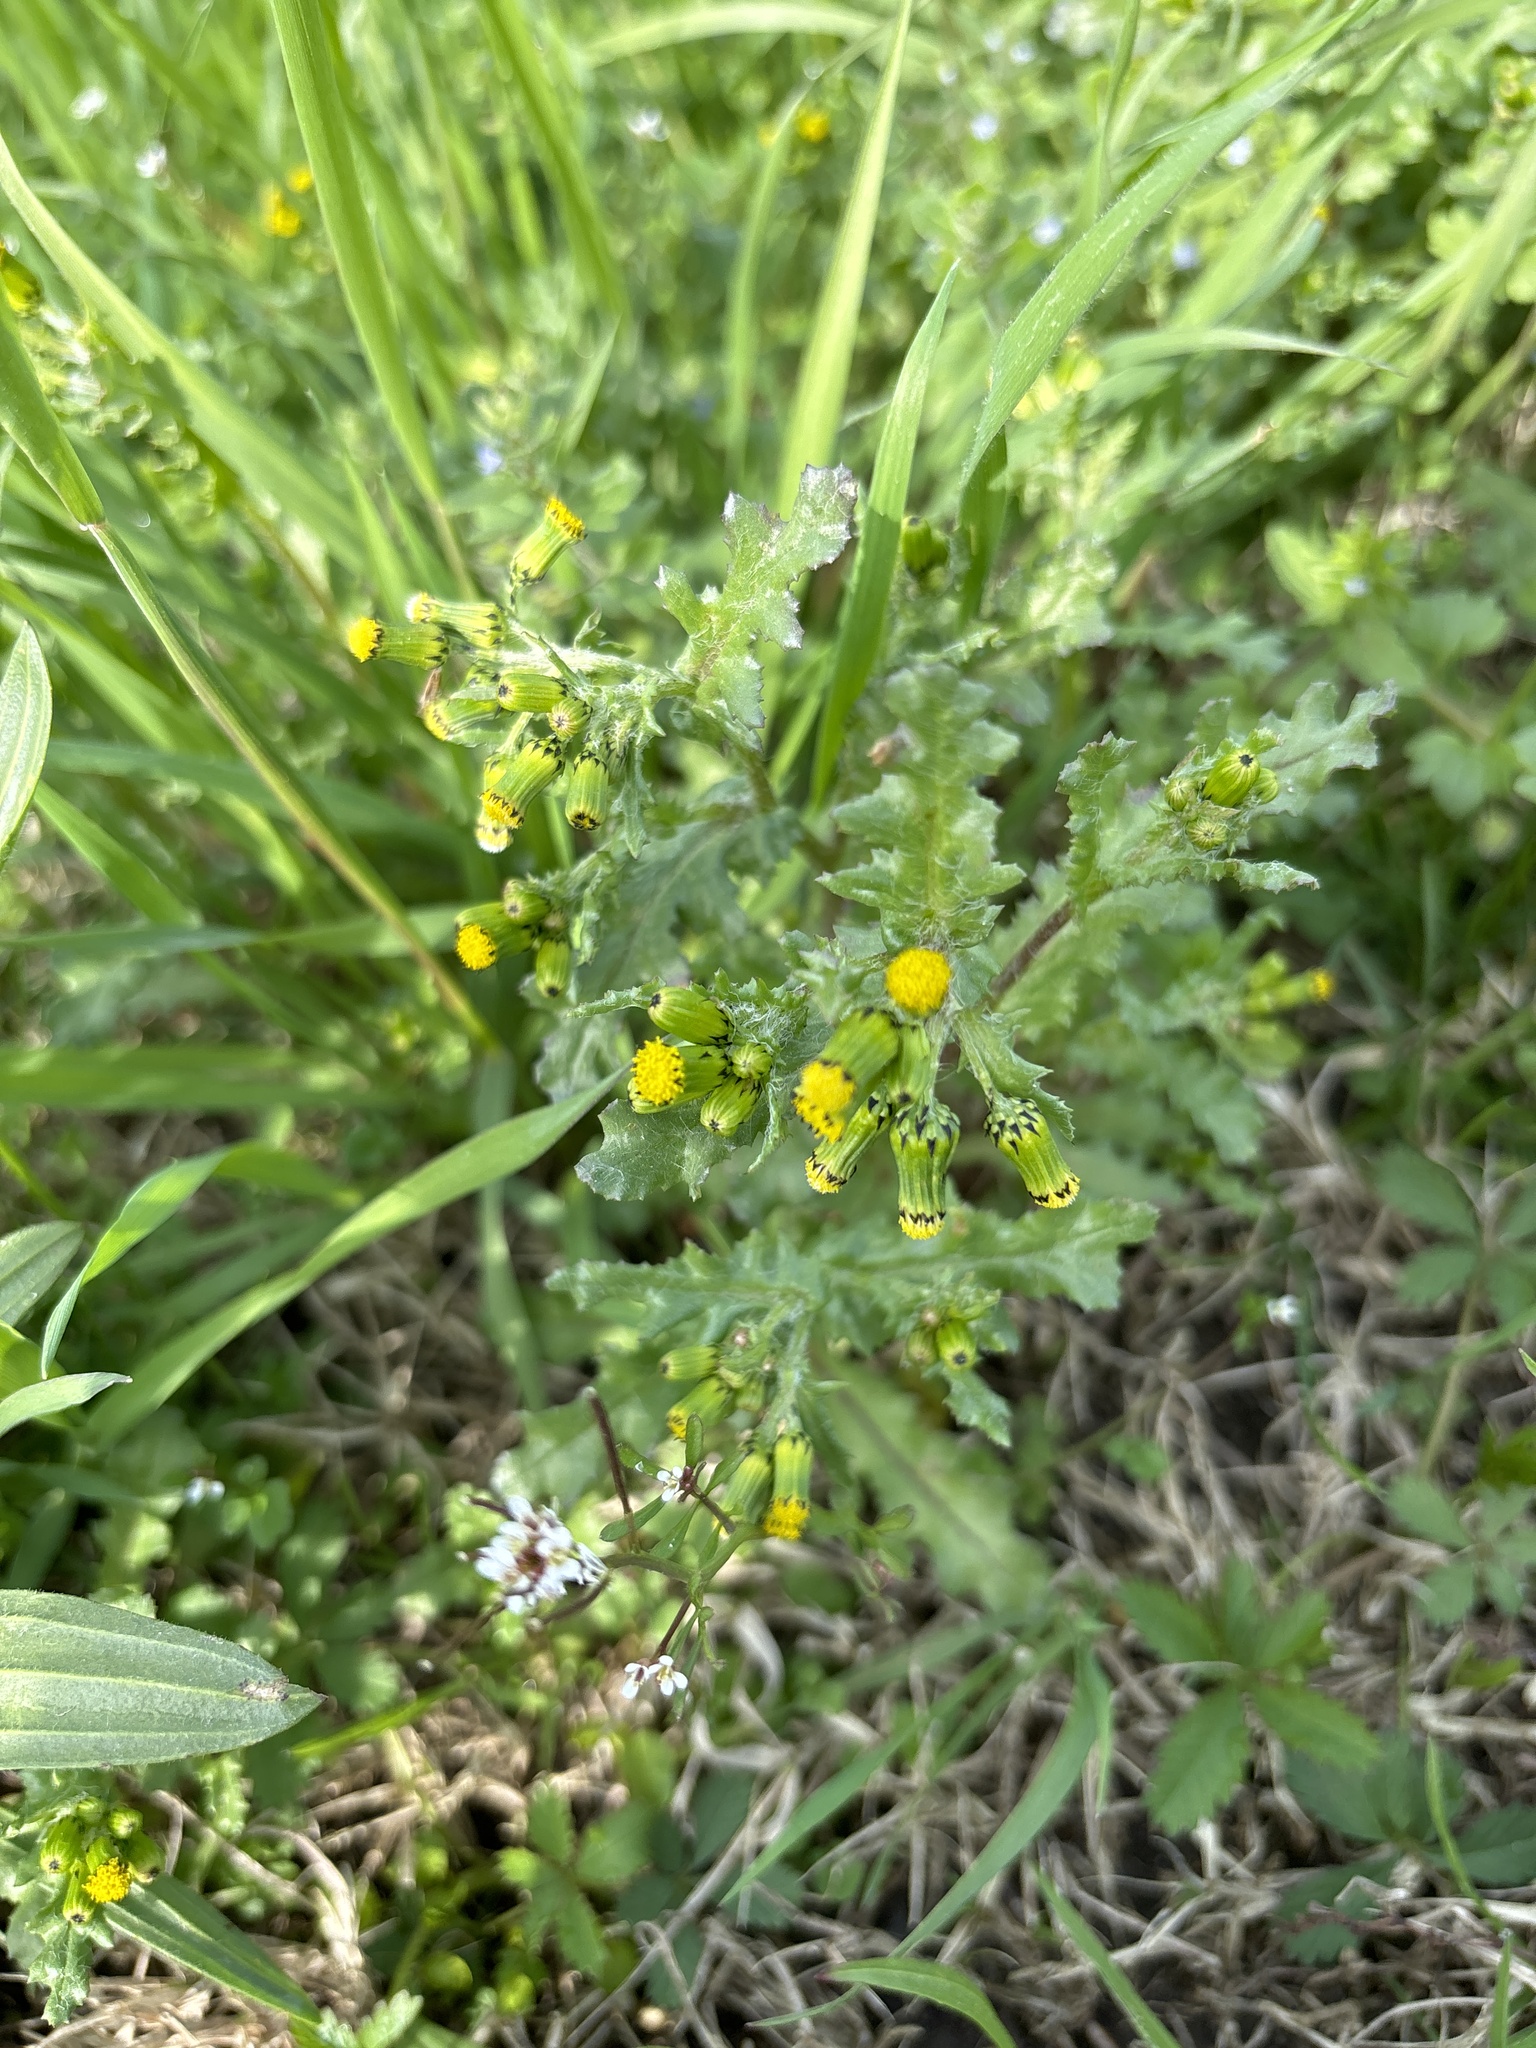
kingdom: Plantae
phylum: Tracheophyta
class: Magnoliopsida
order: Asterales
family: Asteraceae
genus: Senecio
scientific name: Senecio vulgaris
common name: Old-man-in-the-spring
